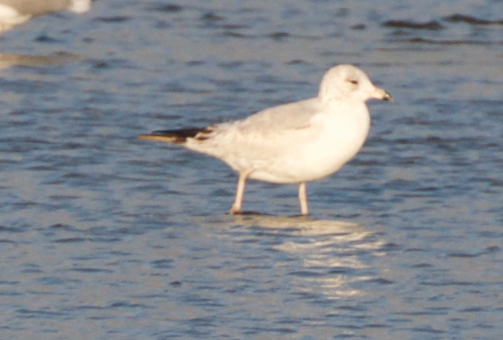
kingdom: Animalia
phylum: Chordata
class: Aves
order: Charadriiformes
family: Laridae
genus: Larus
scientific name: Larus delawarensis
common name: Ring-billed gull
